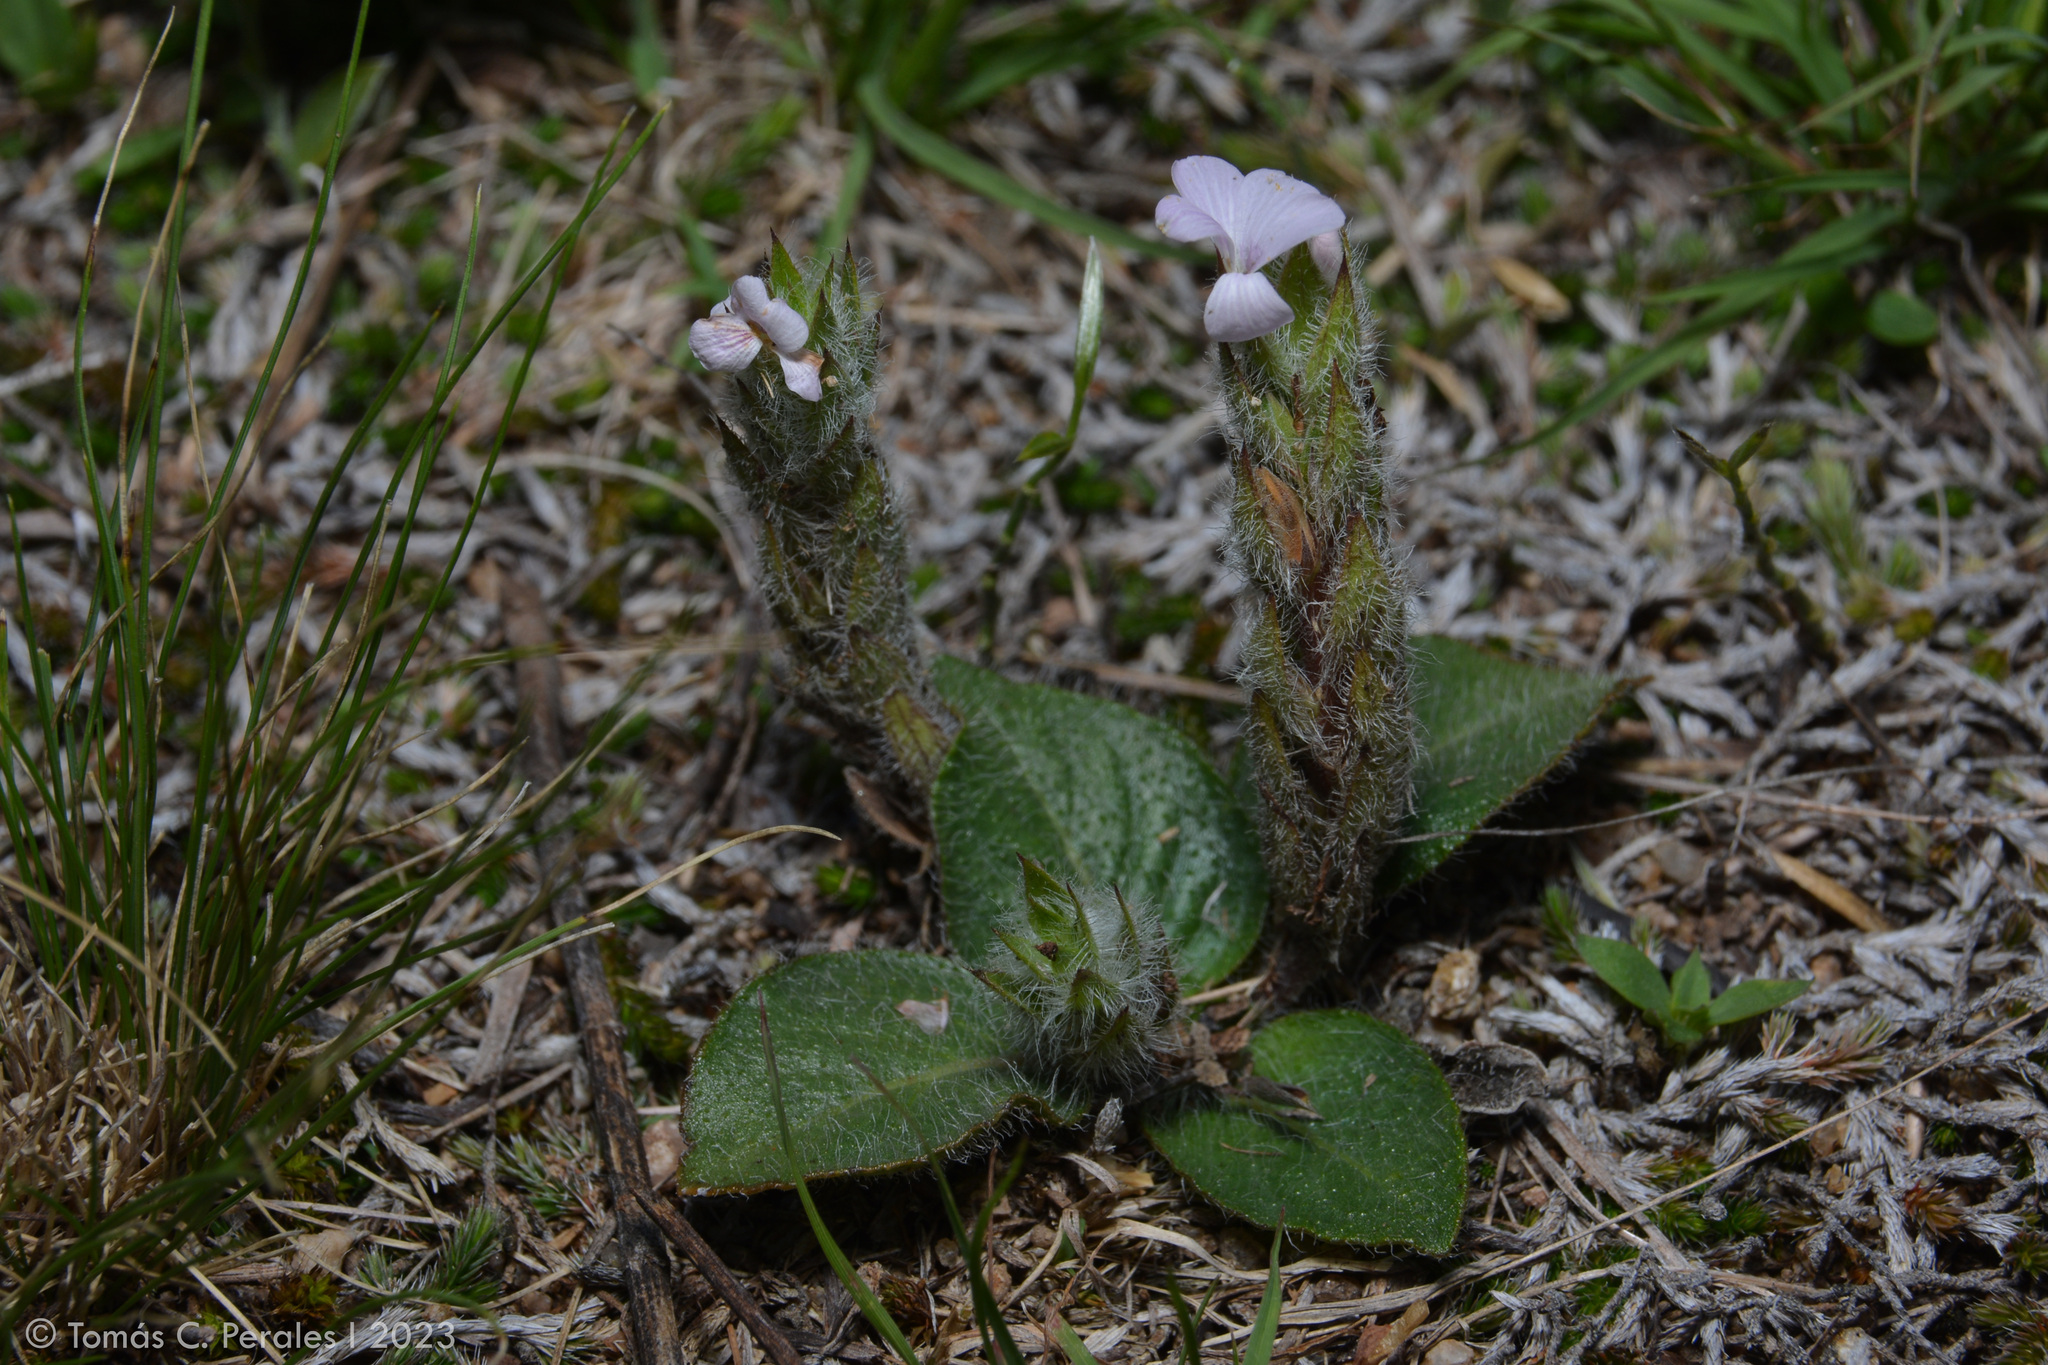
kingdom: Plantae
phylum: Tracheophyta
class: Magnoliopsida
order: Lamiales
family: Acanthaceae
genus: Stenandrium
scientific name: Stenandrium diphyllum
